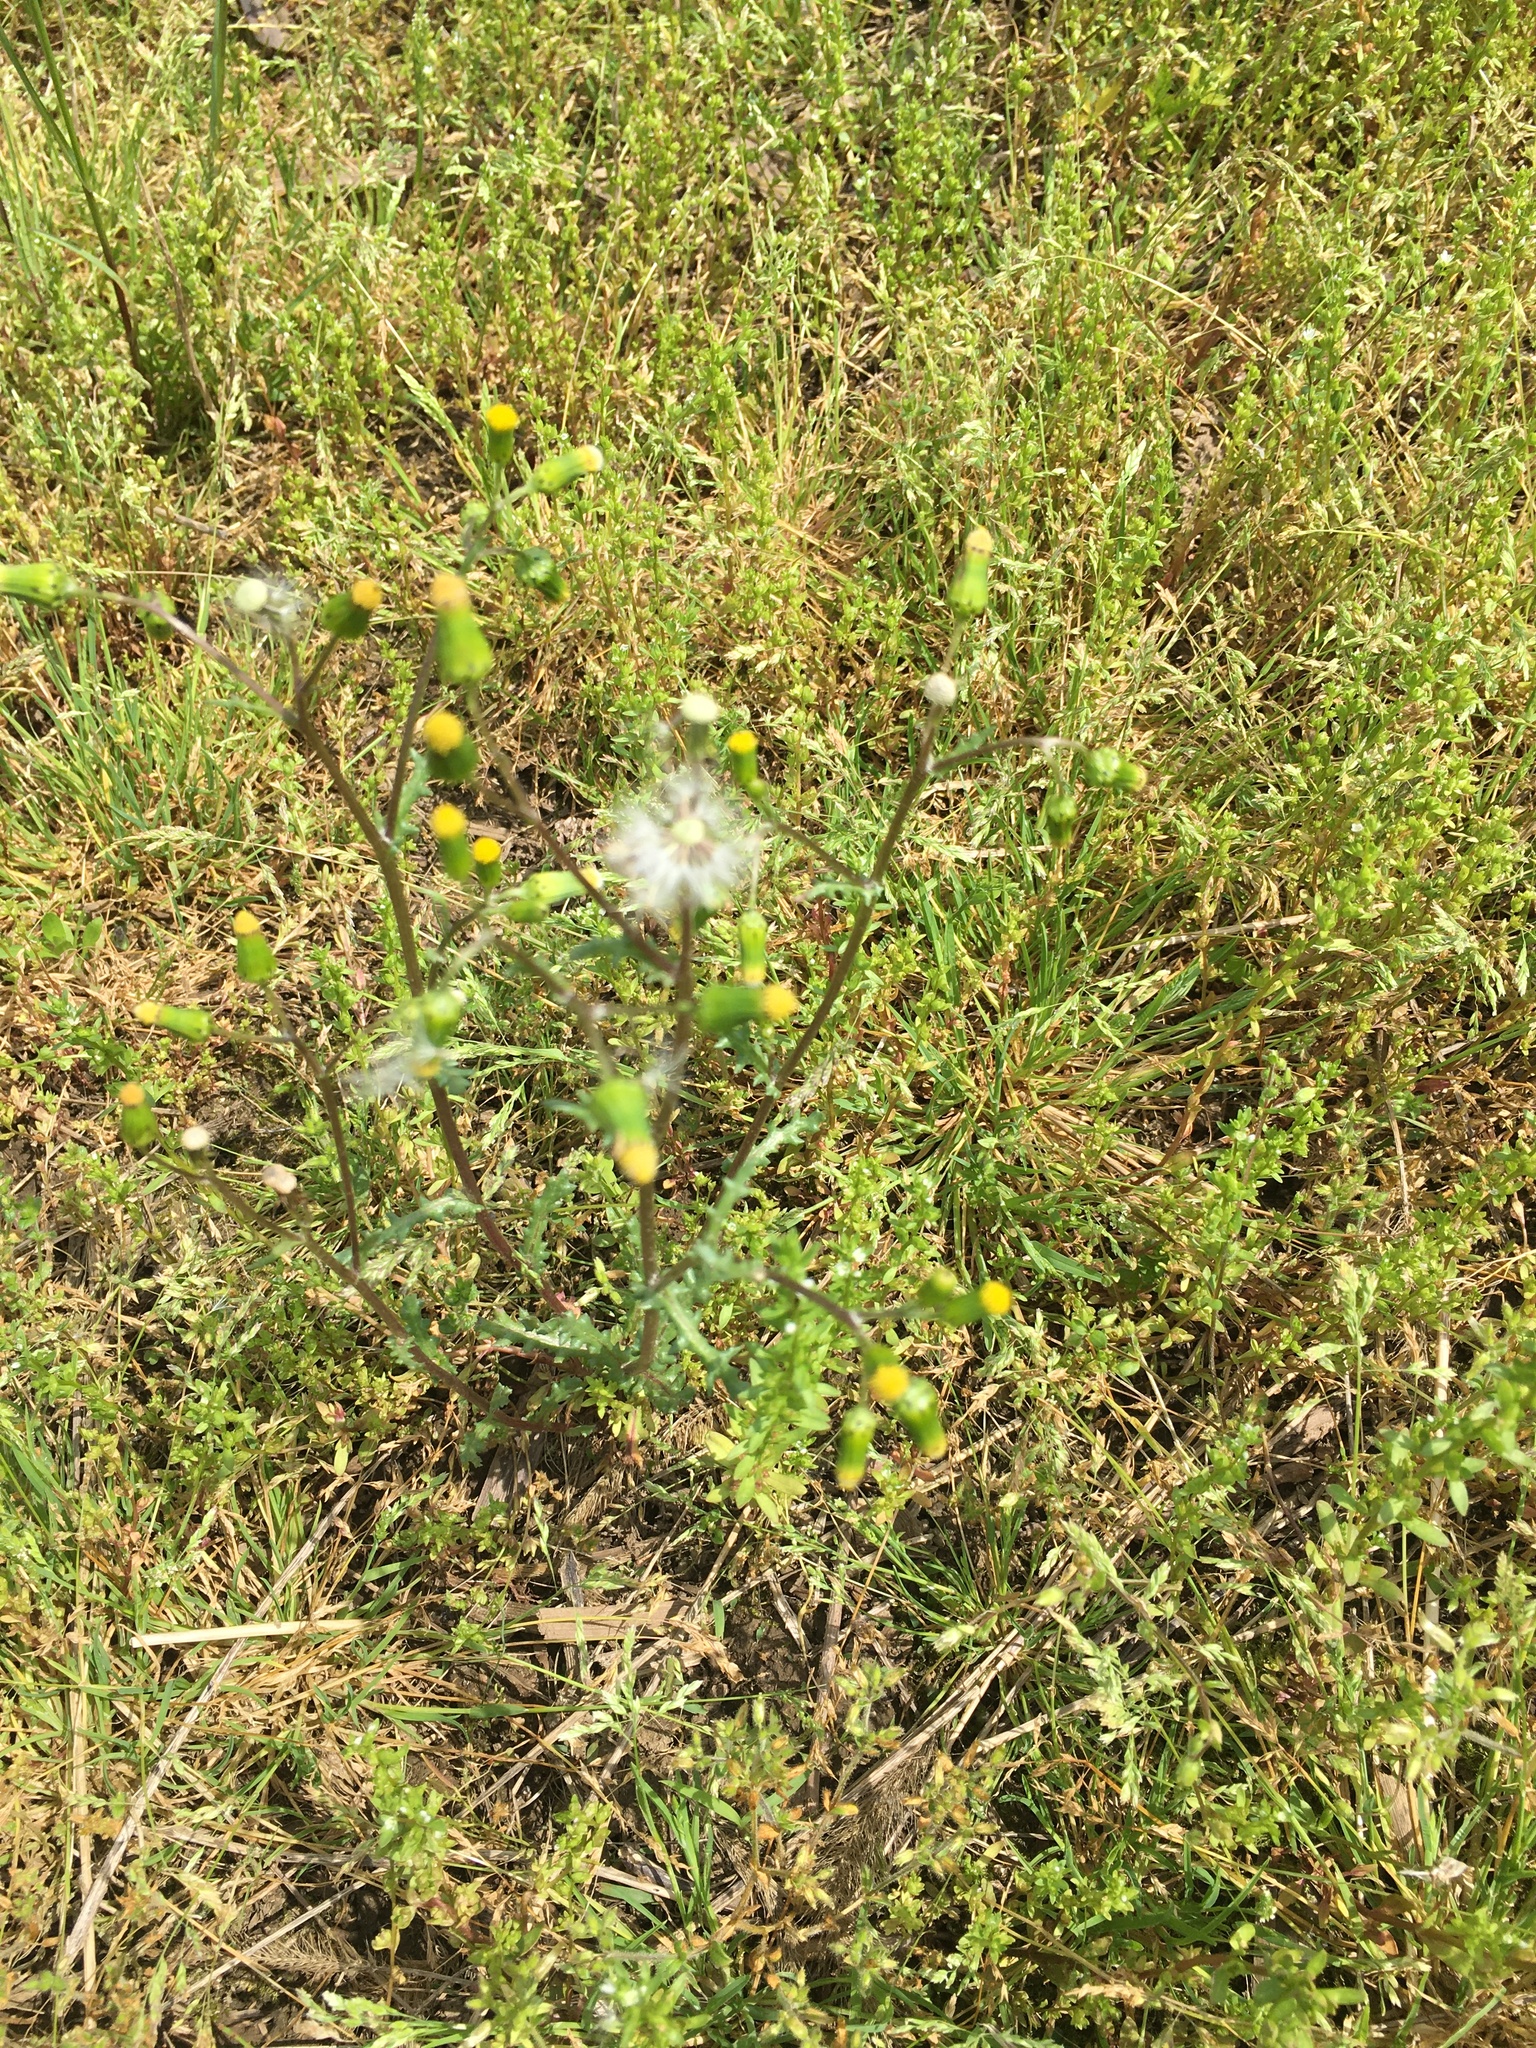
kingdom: Plantae
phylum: Tracheophyta
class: Magnoliopsida
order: Asterales
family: Asteraceae
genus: Senecio
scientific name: Senecio vulgaris
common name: Old-man-in-the-spring
